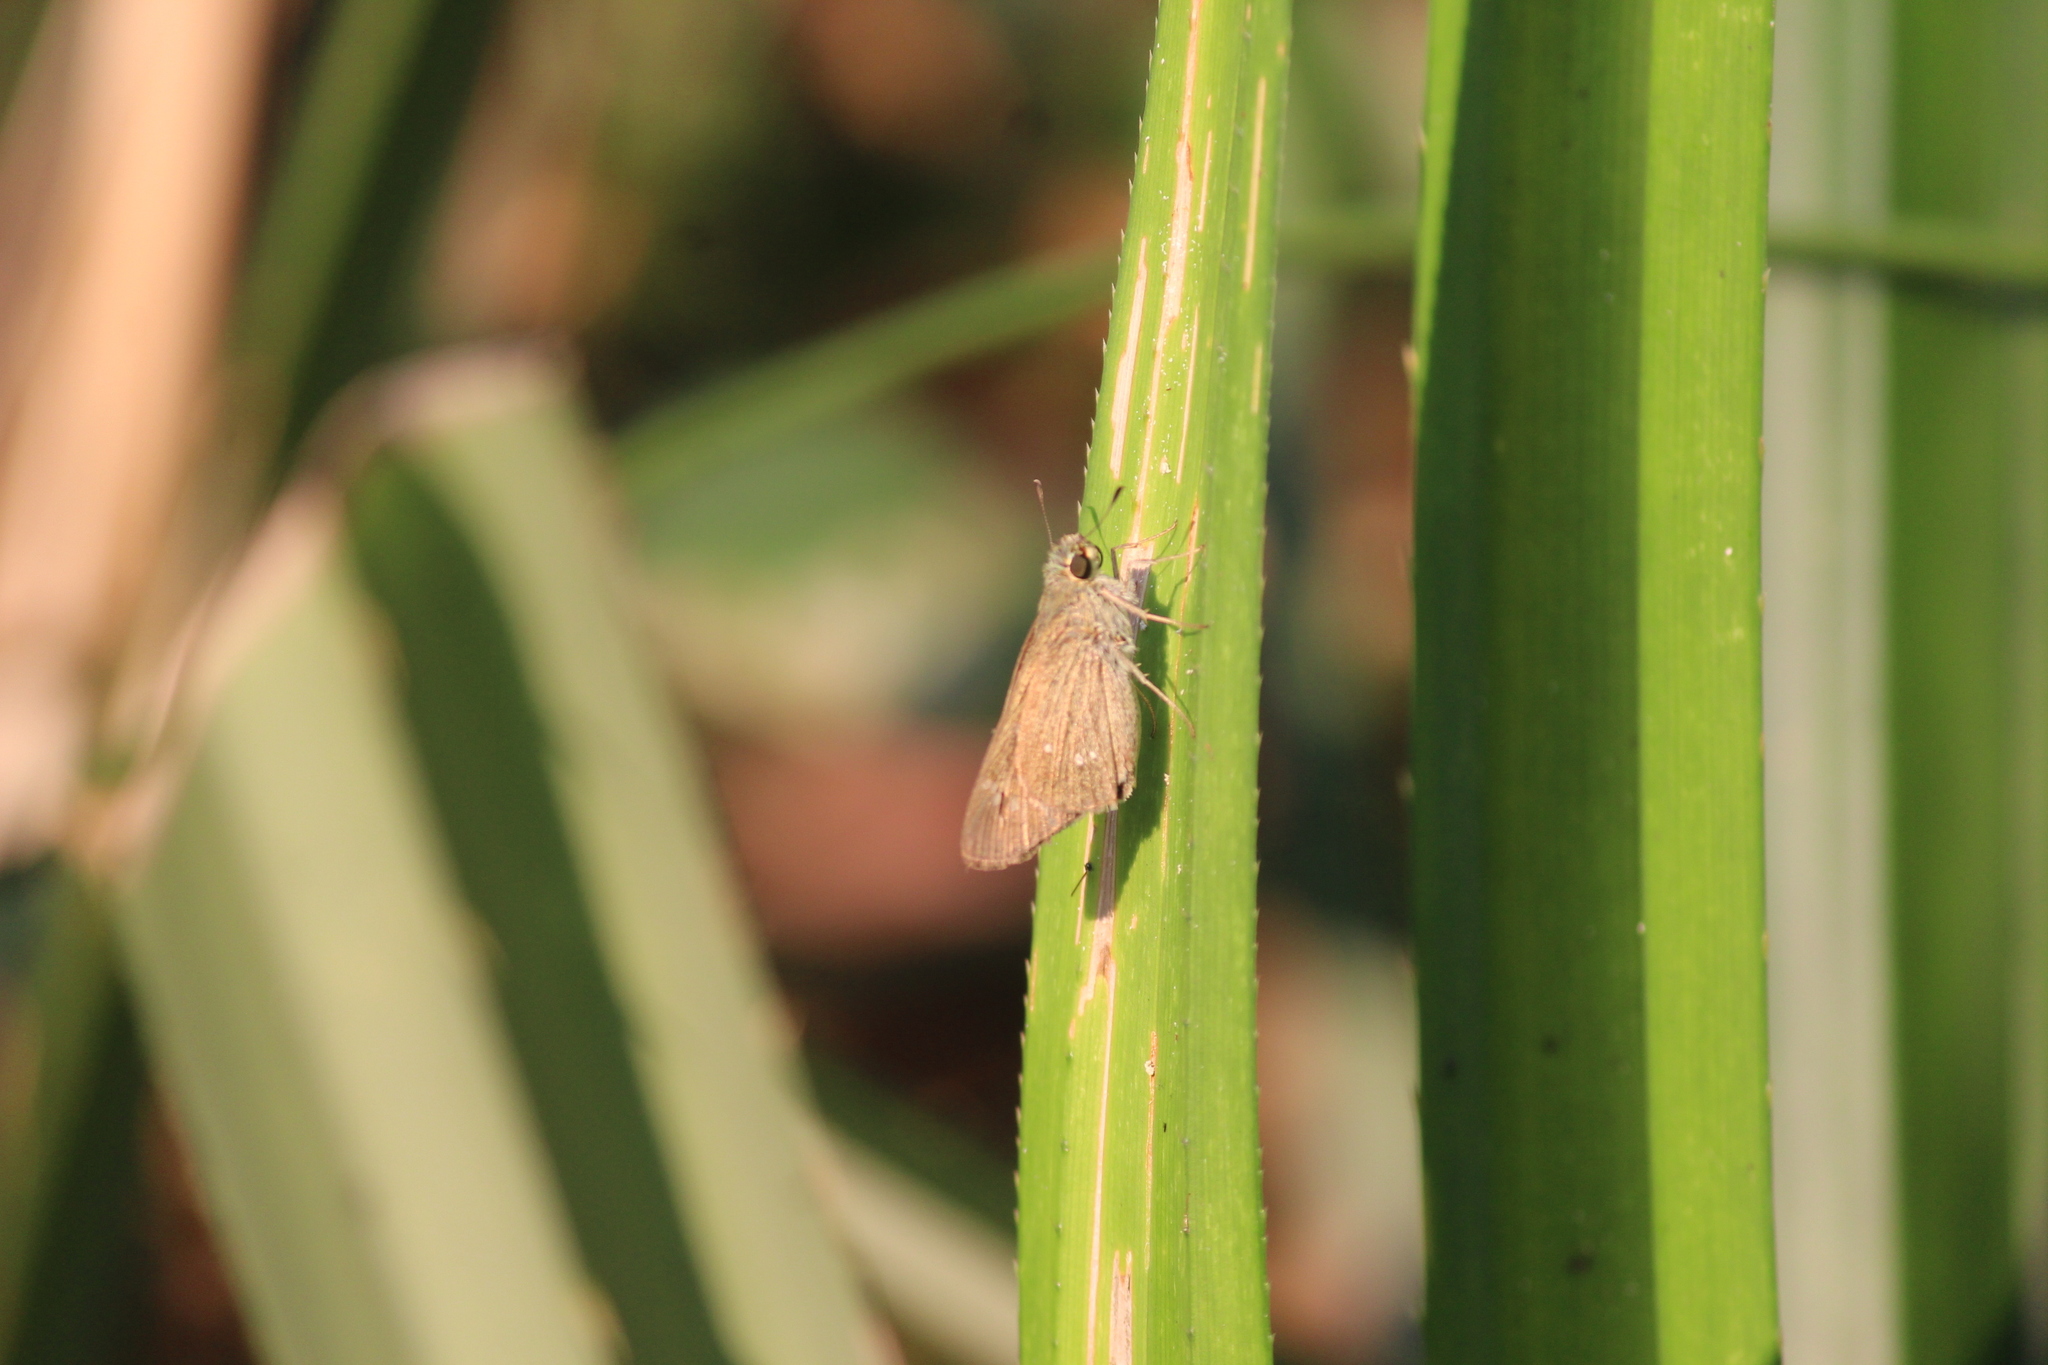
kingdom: Animalia
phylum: Arthropoda
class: Insecta
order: Lepidoptera
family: Hesperiidae
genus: Borbo
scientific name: Borbo cinnara
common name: Formosan swift
